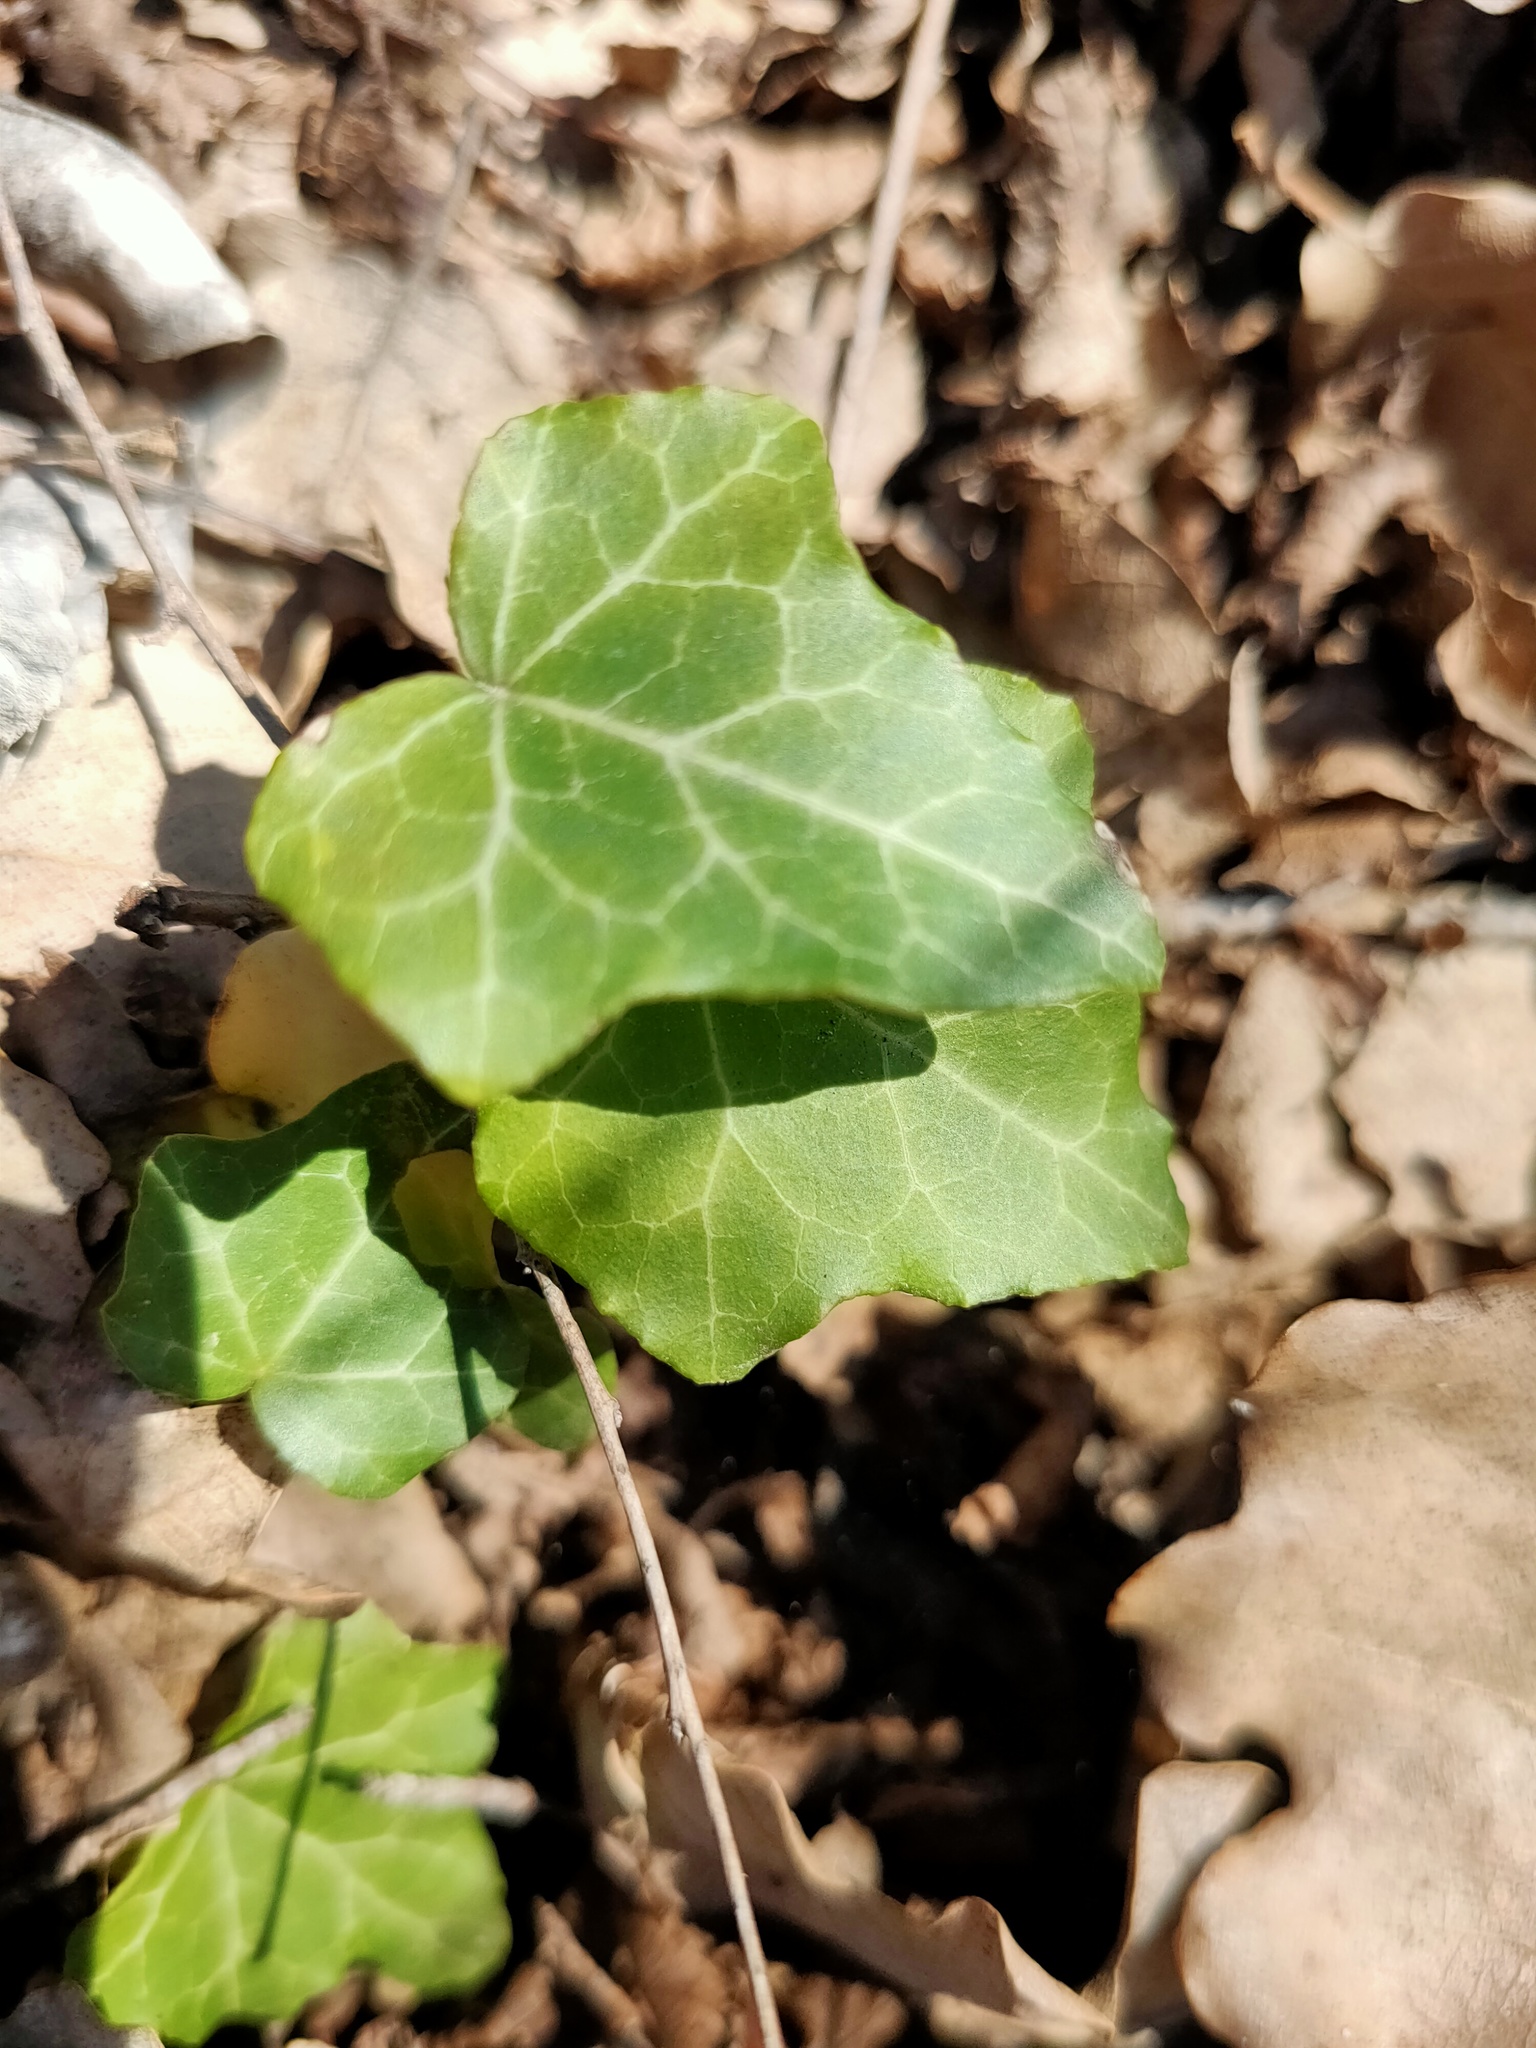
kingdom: Plantae
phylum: Tracheophyta
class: Magnoliopsida
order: Apiales
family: Araliaceae
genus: Hedera
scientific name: Hedera helix
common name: Ivy
